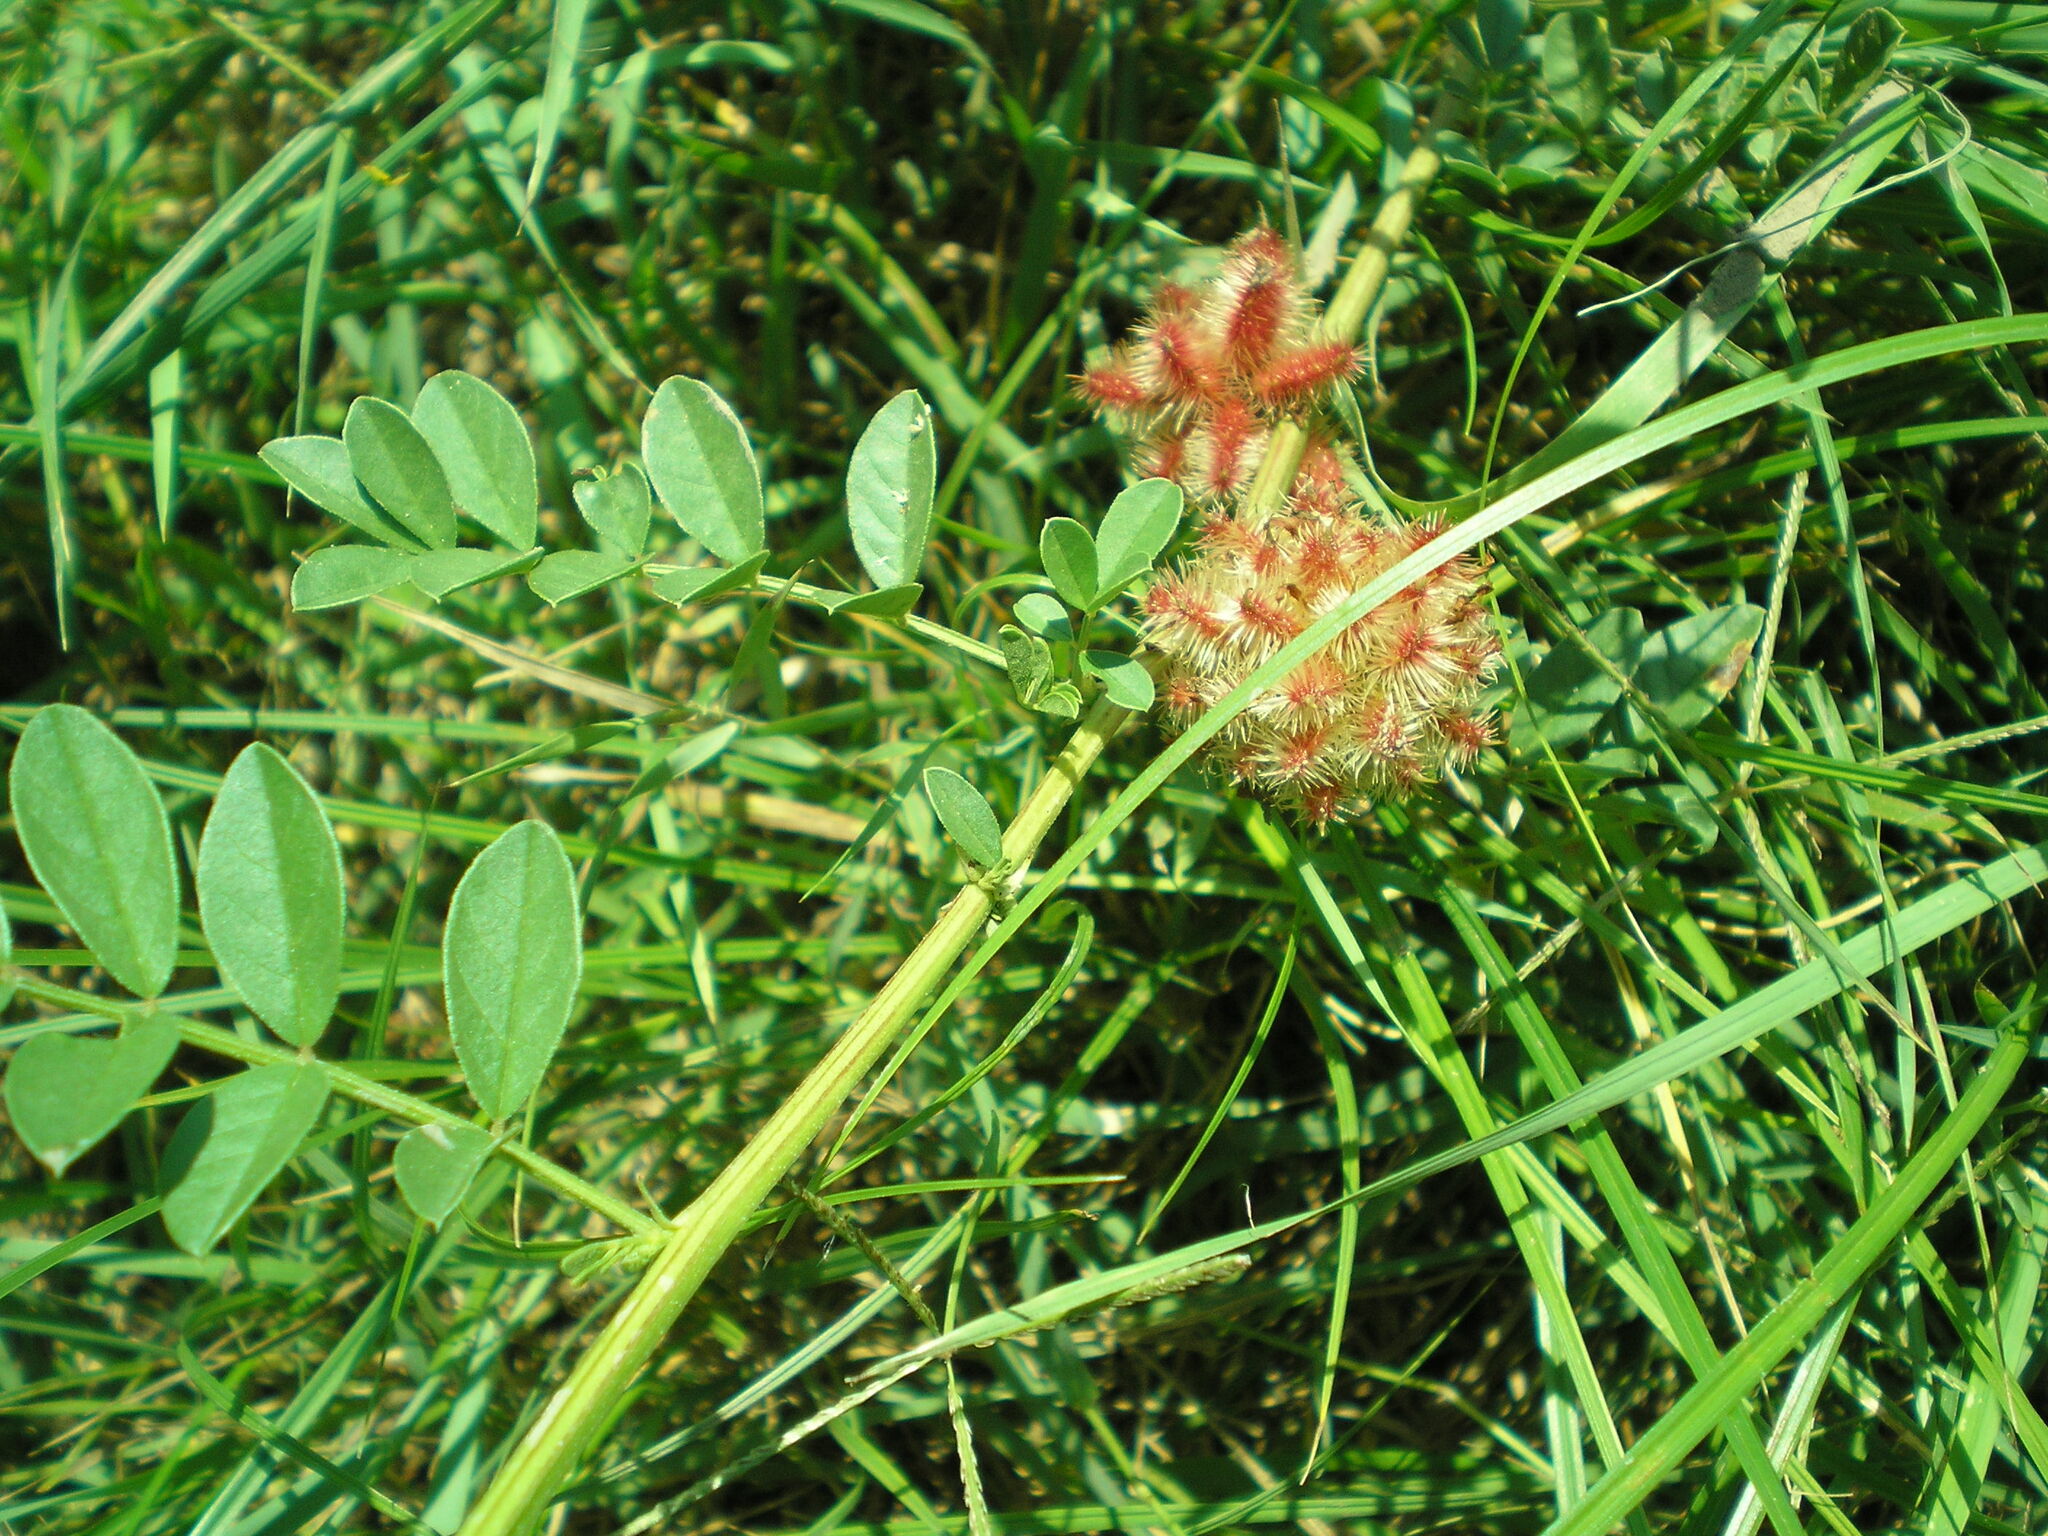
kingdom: Plantae
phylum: Tracheophyta
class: Magnoliopsida
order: Fabales
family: Fabaceae
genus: Glycyrrhiza
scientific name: Glycyrrhiza echinata
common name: German liquorice
